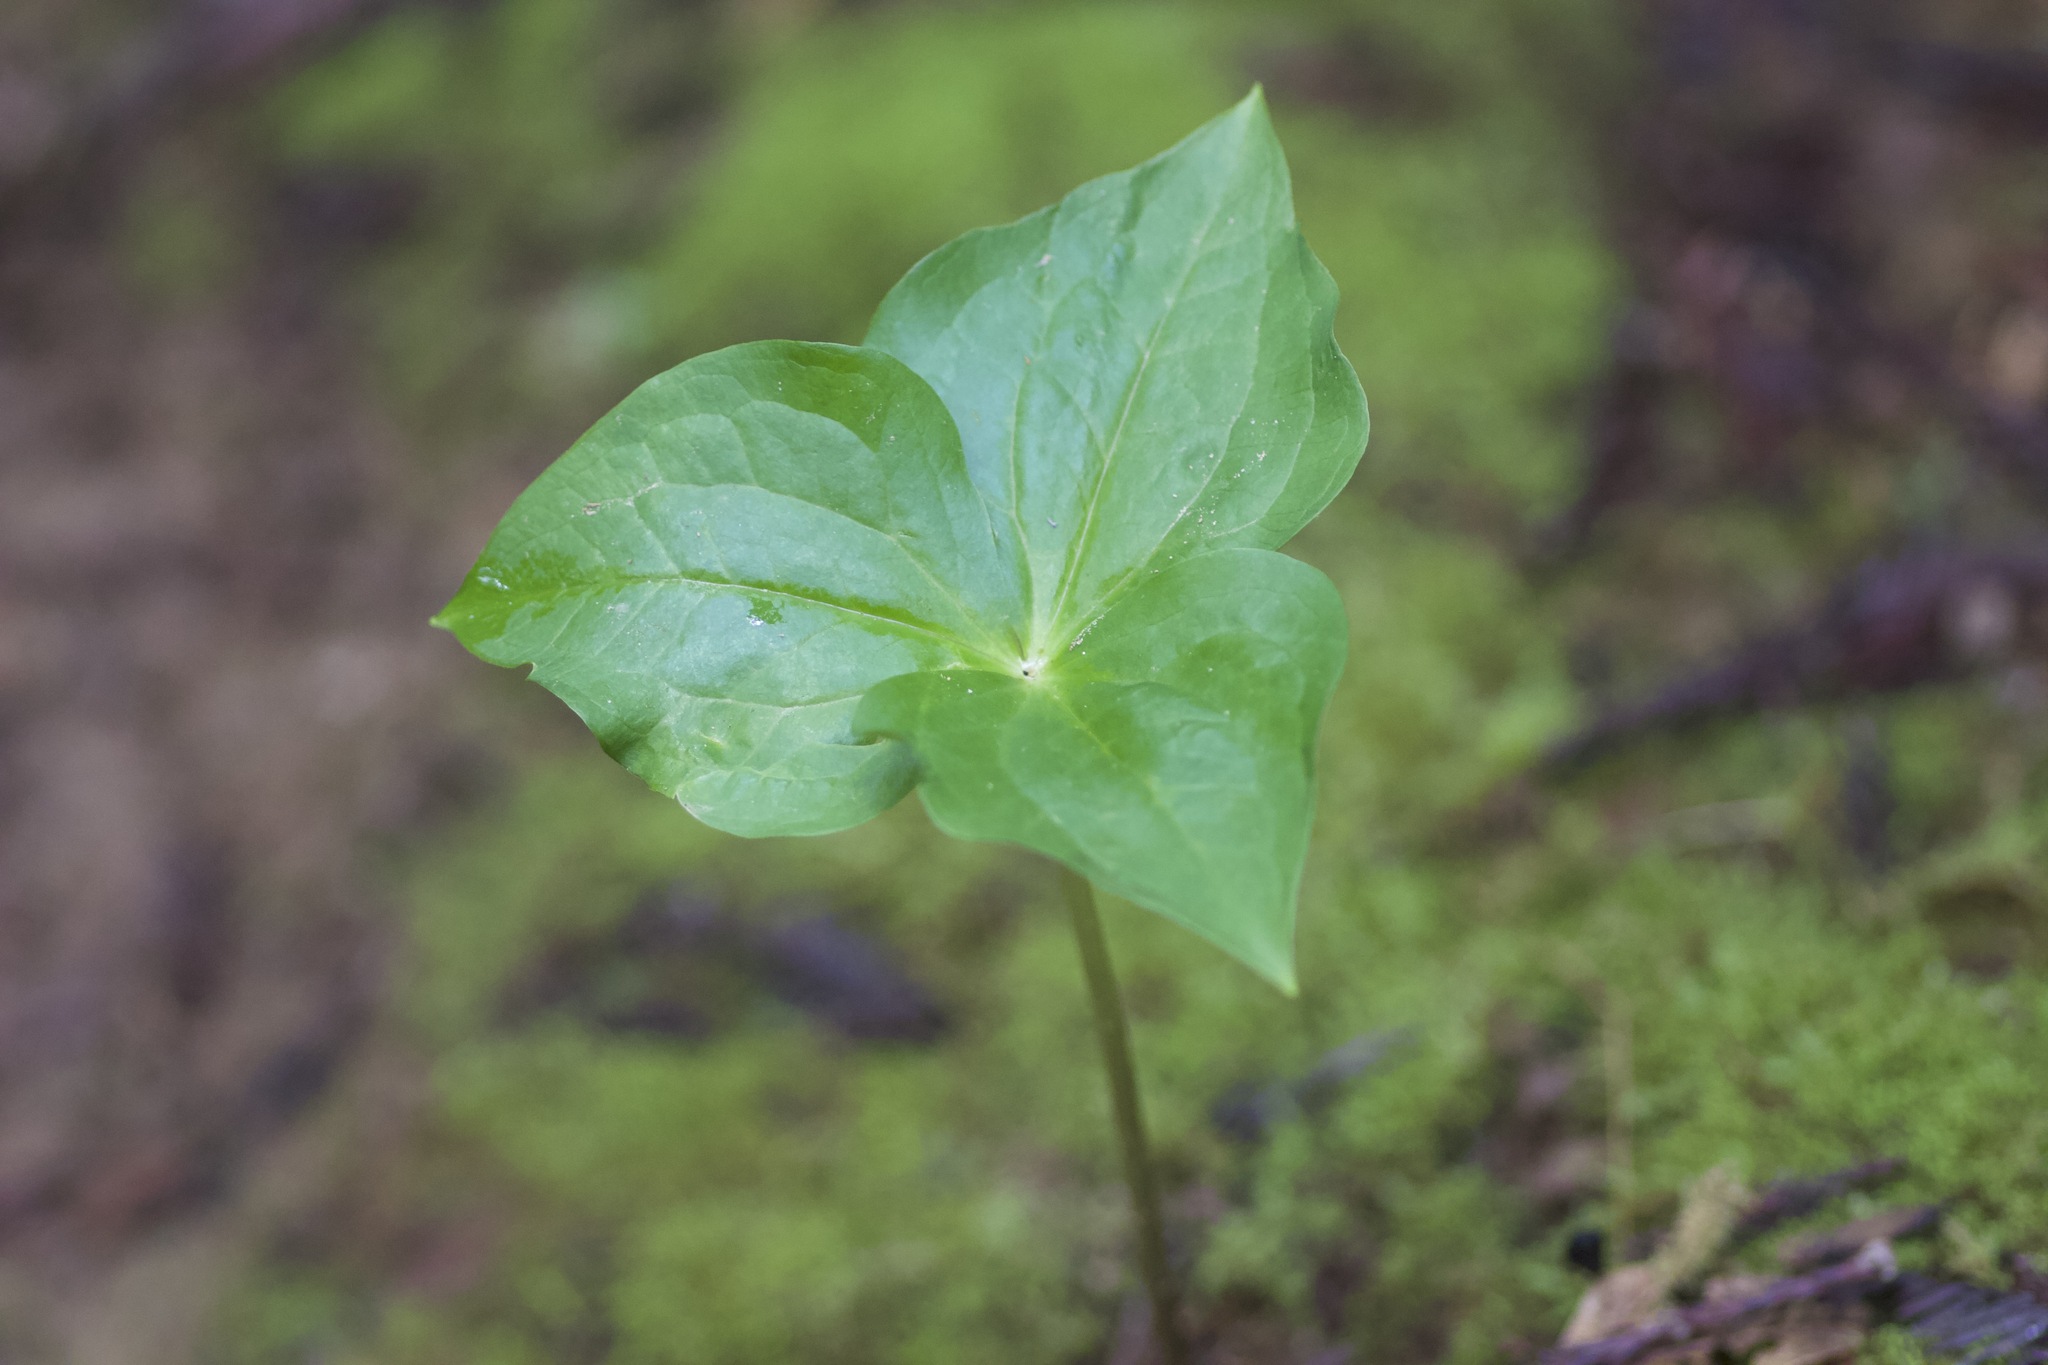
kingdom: Plantae
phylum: Tracheophyta
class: Liliopsida
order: Liliales
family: Melanthiaceae
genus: Trillium
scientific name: Trillium ovatum
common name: Pacific trillium
